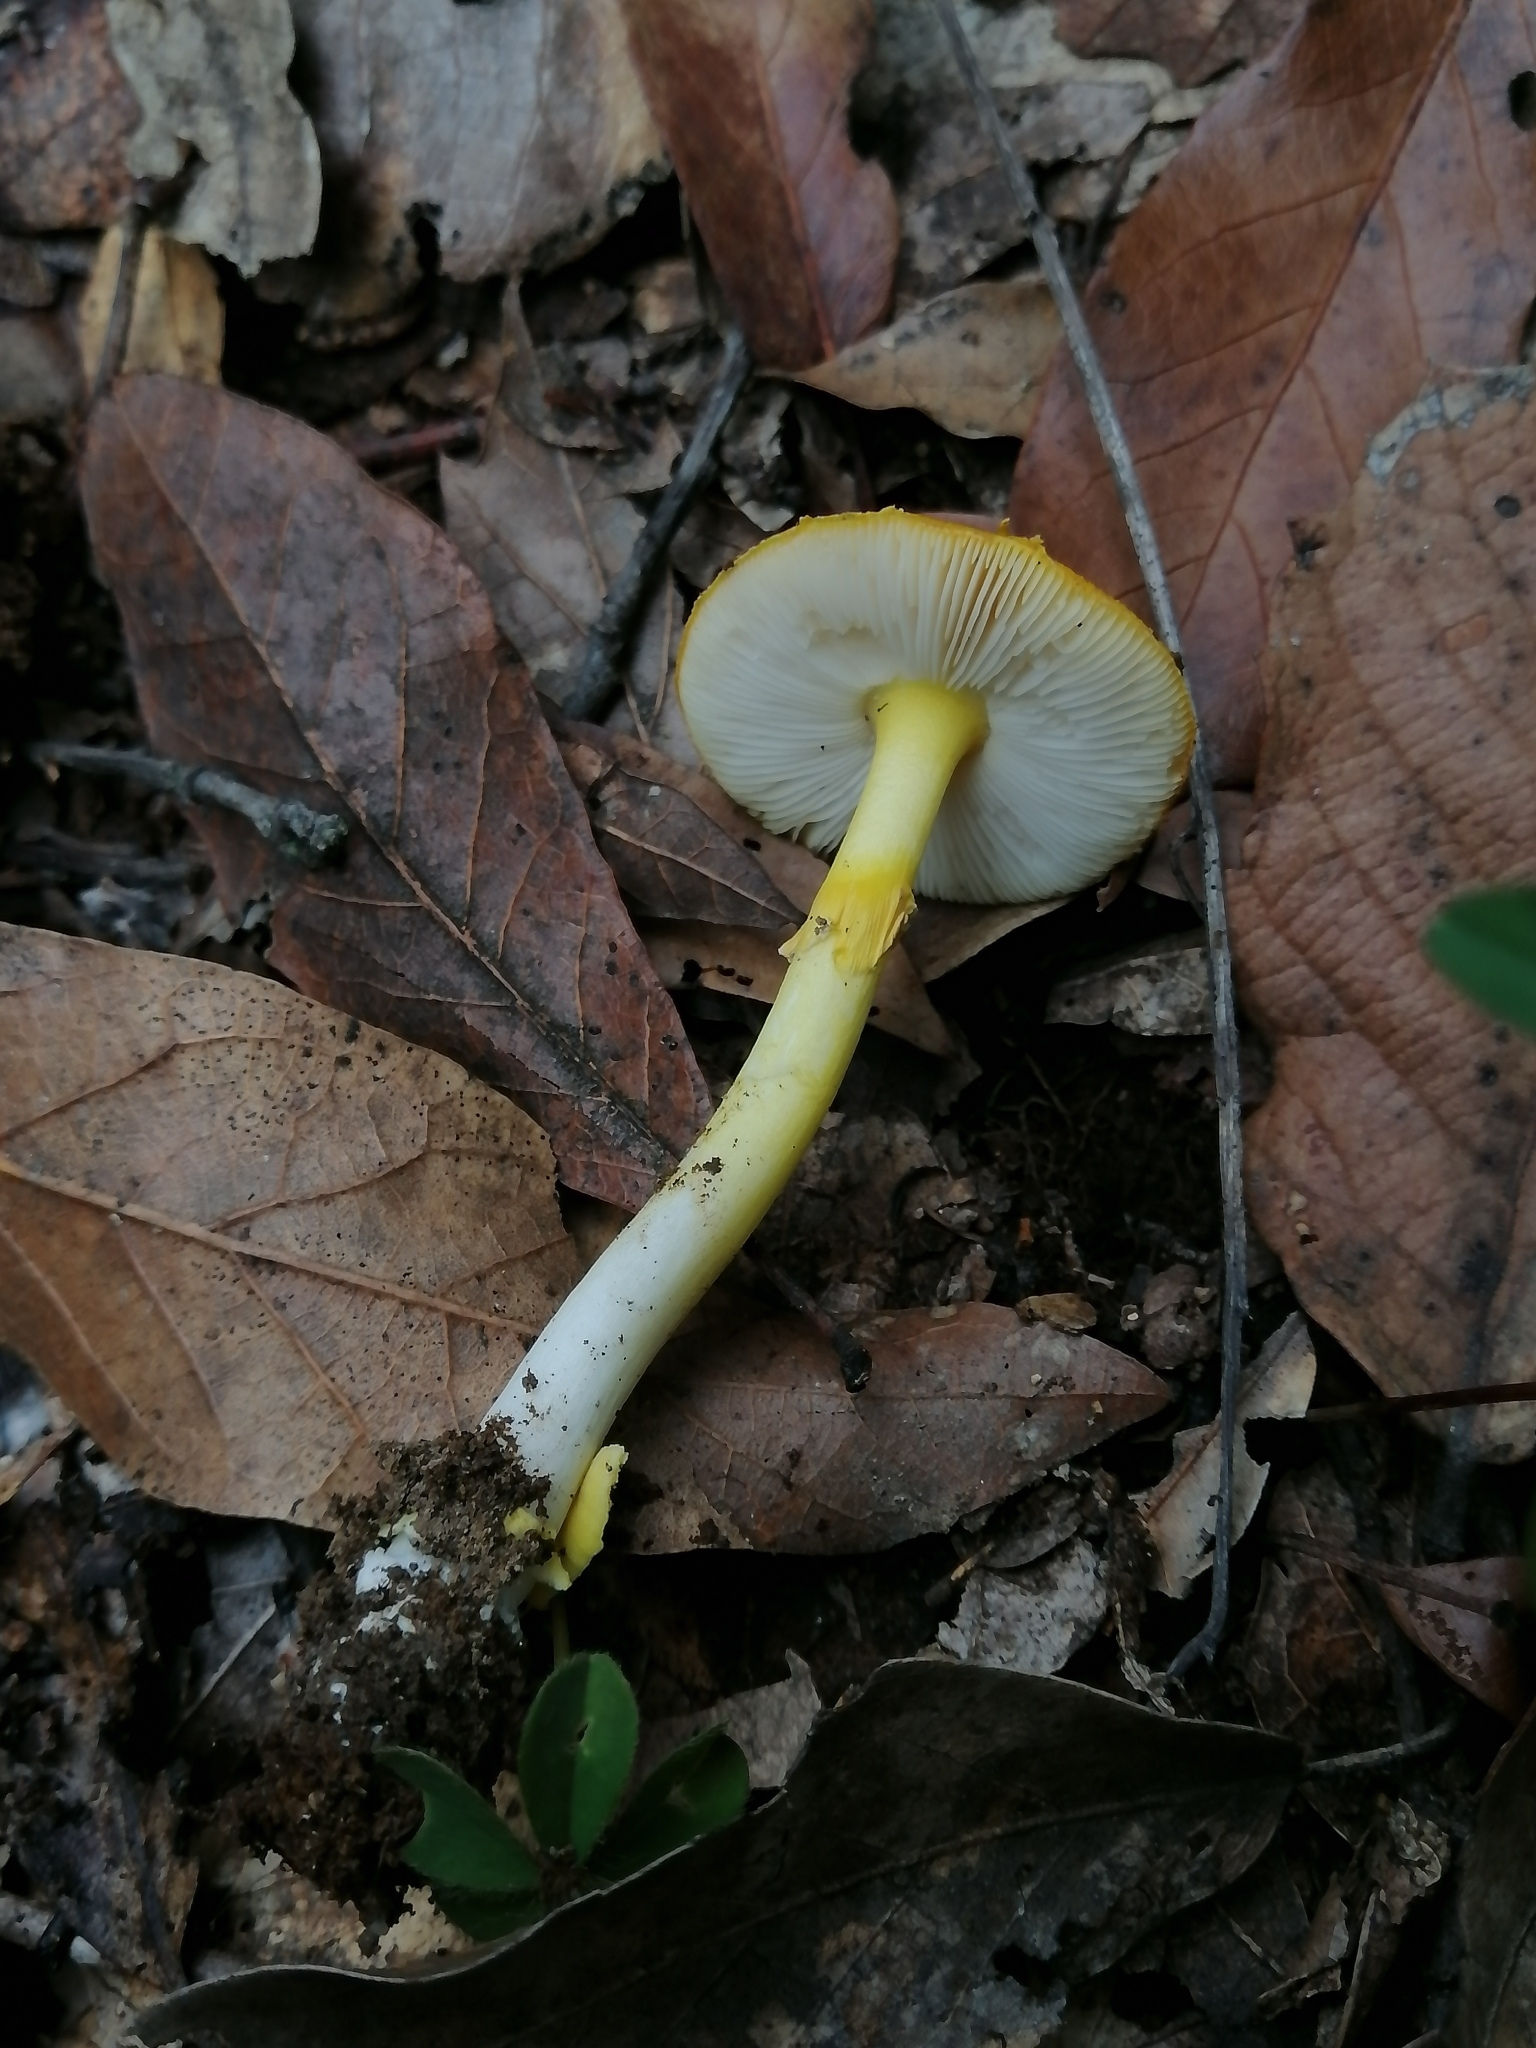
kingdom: Fungi
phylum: Basidiomycota
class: Agaricomycetes
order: Agaricales
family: Amanitaceae
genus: Amanita
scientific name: Amanita flavoconia
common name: Yellow patches
